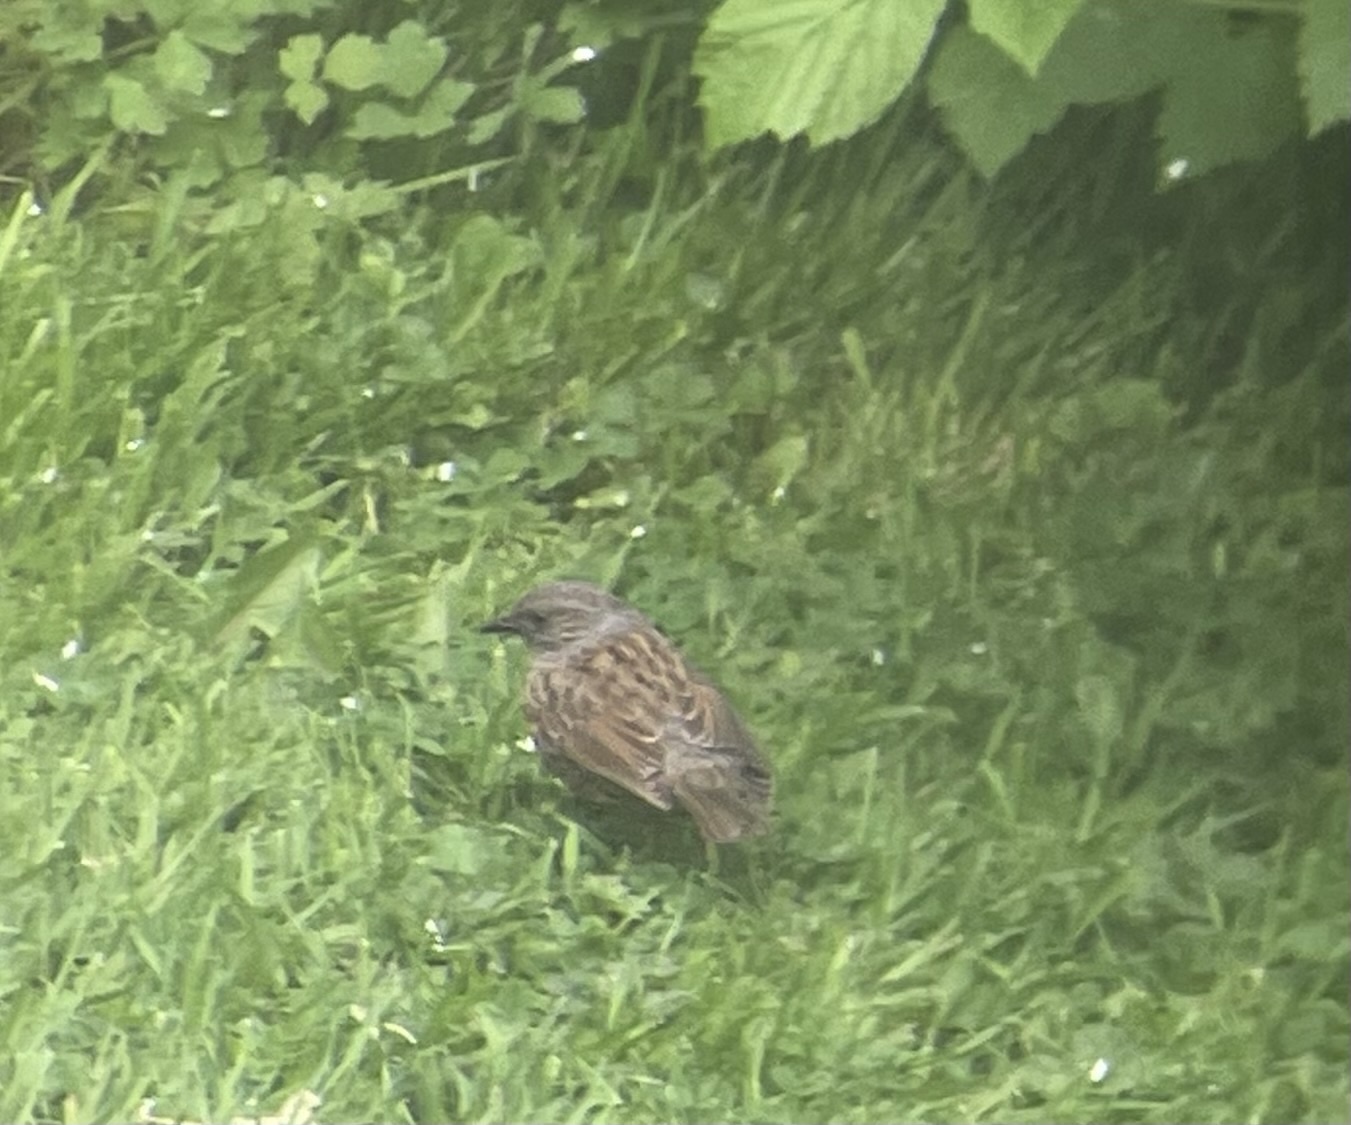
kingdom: Animalia
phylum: Chordata
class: Aves
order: Passeriformes
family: Prunellidae
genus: Prunella
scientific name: Prunella modularis
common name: Dunnock
